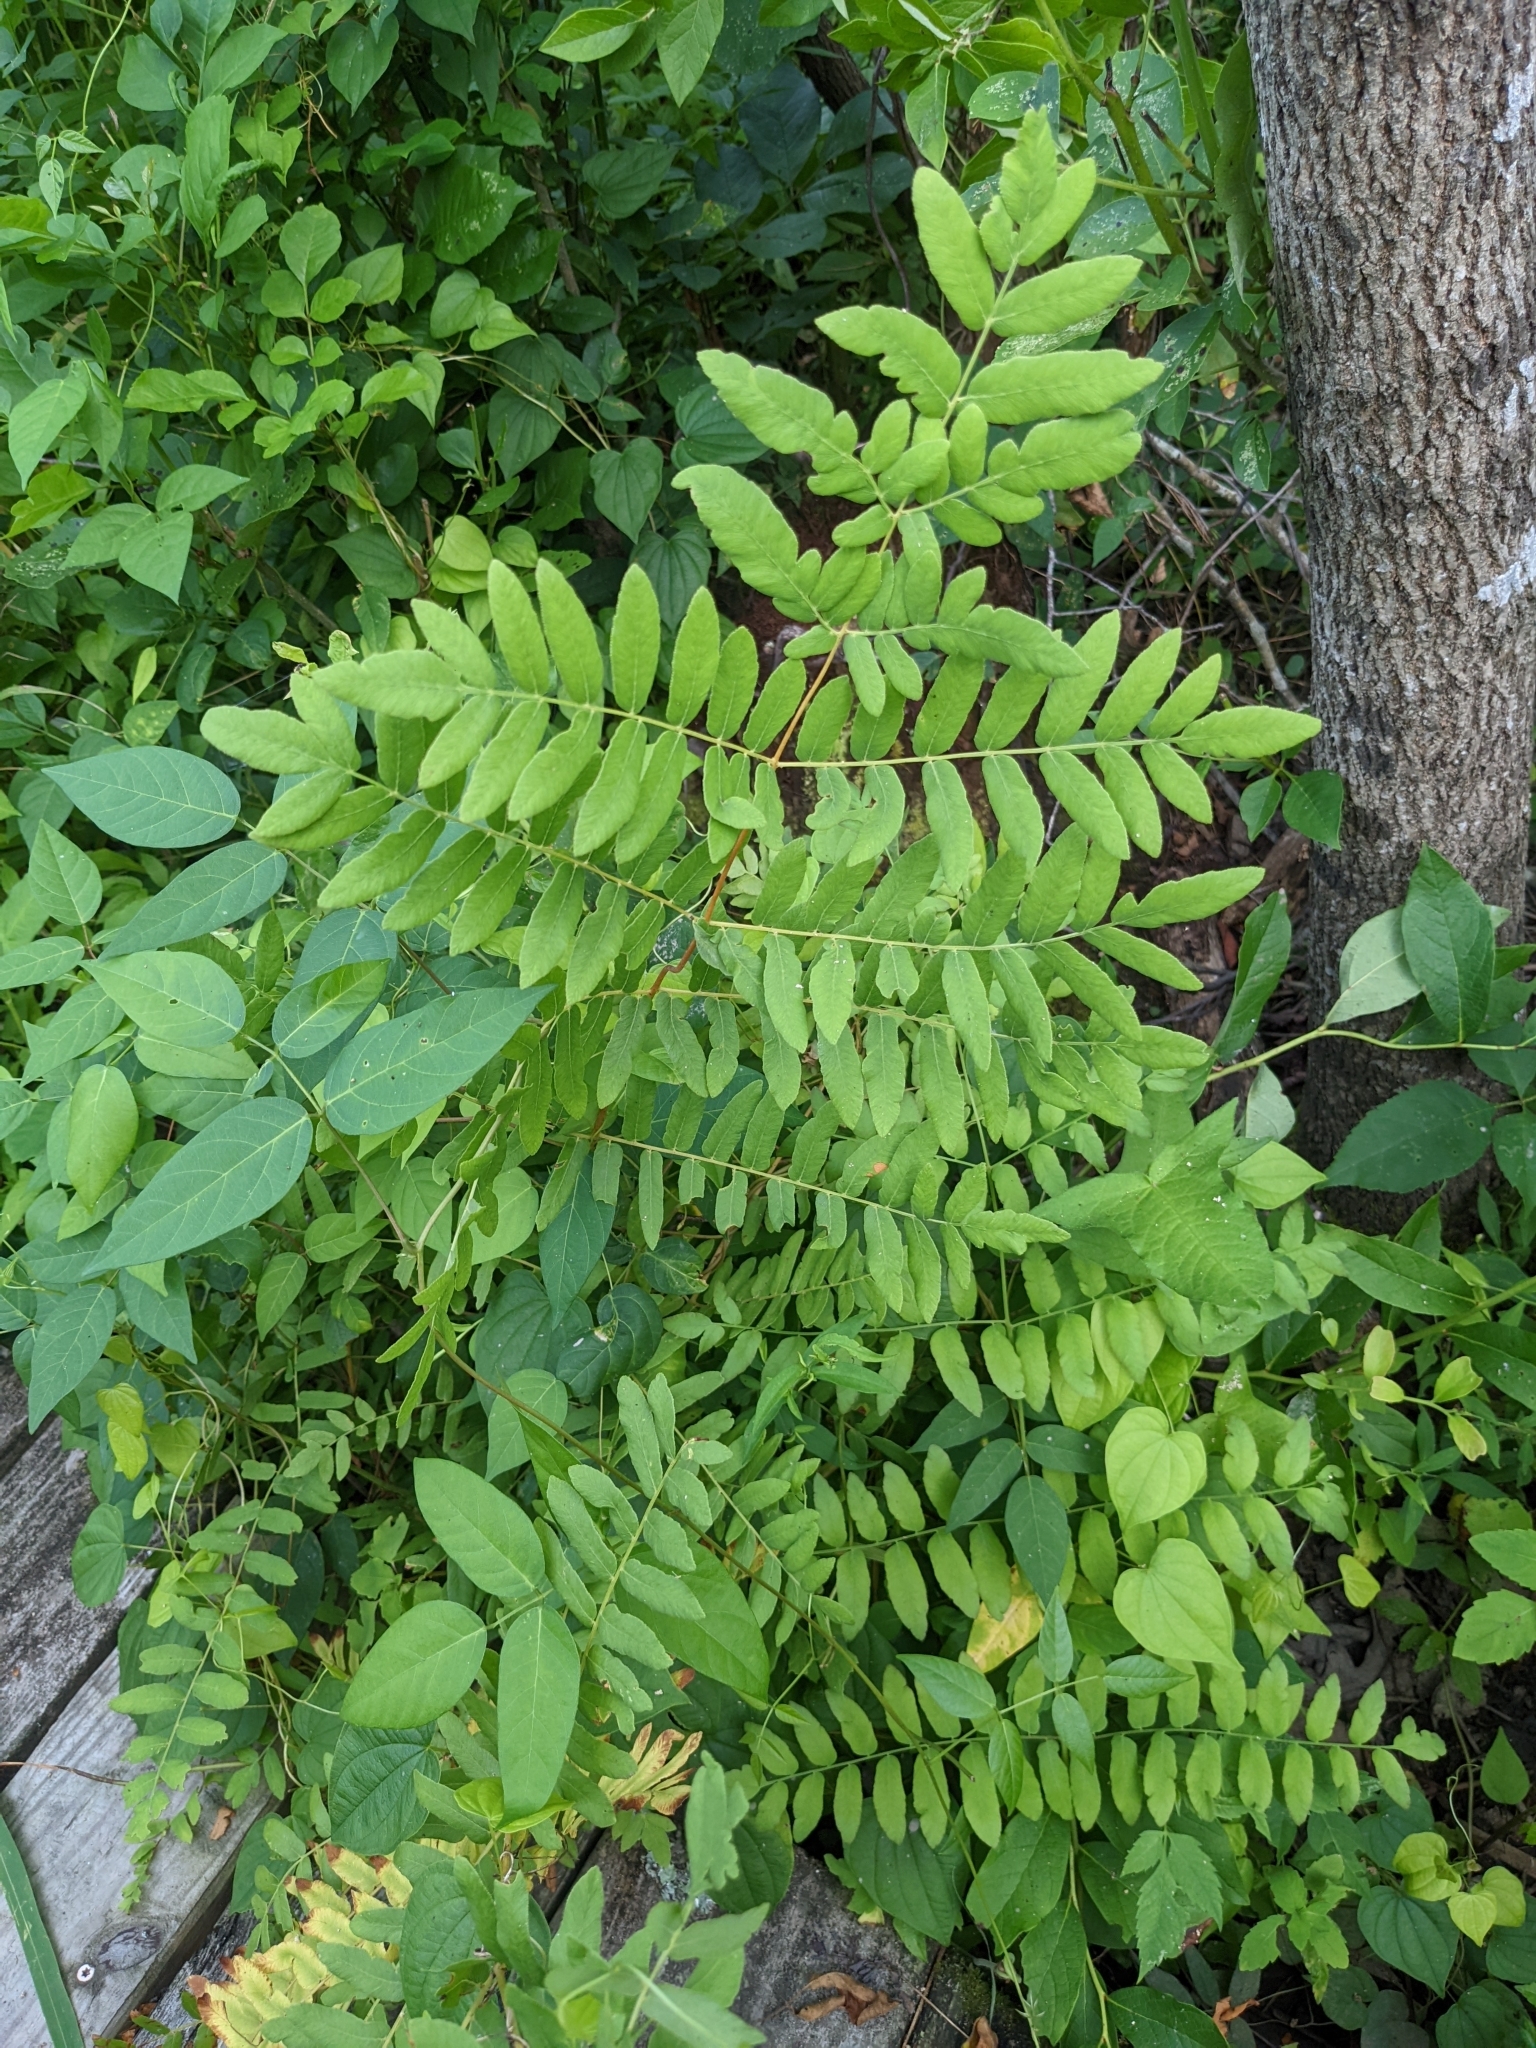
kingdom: Plantae
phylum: Tracheophyta
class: Polypodiopsida
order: Osmundales
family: Osmundaceae
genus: Osmunda
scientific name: Osmunda spectabilis
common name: American royal fern
